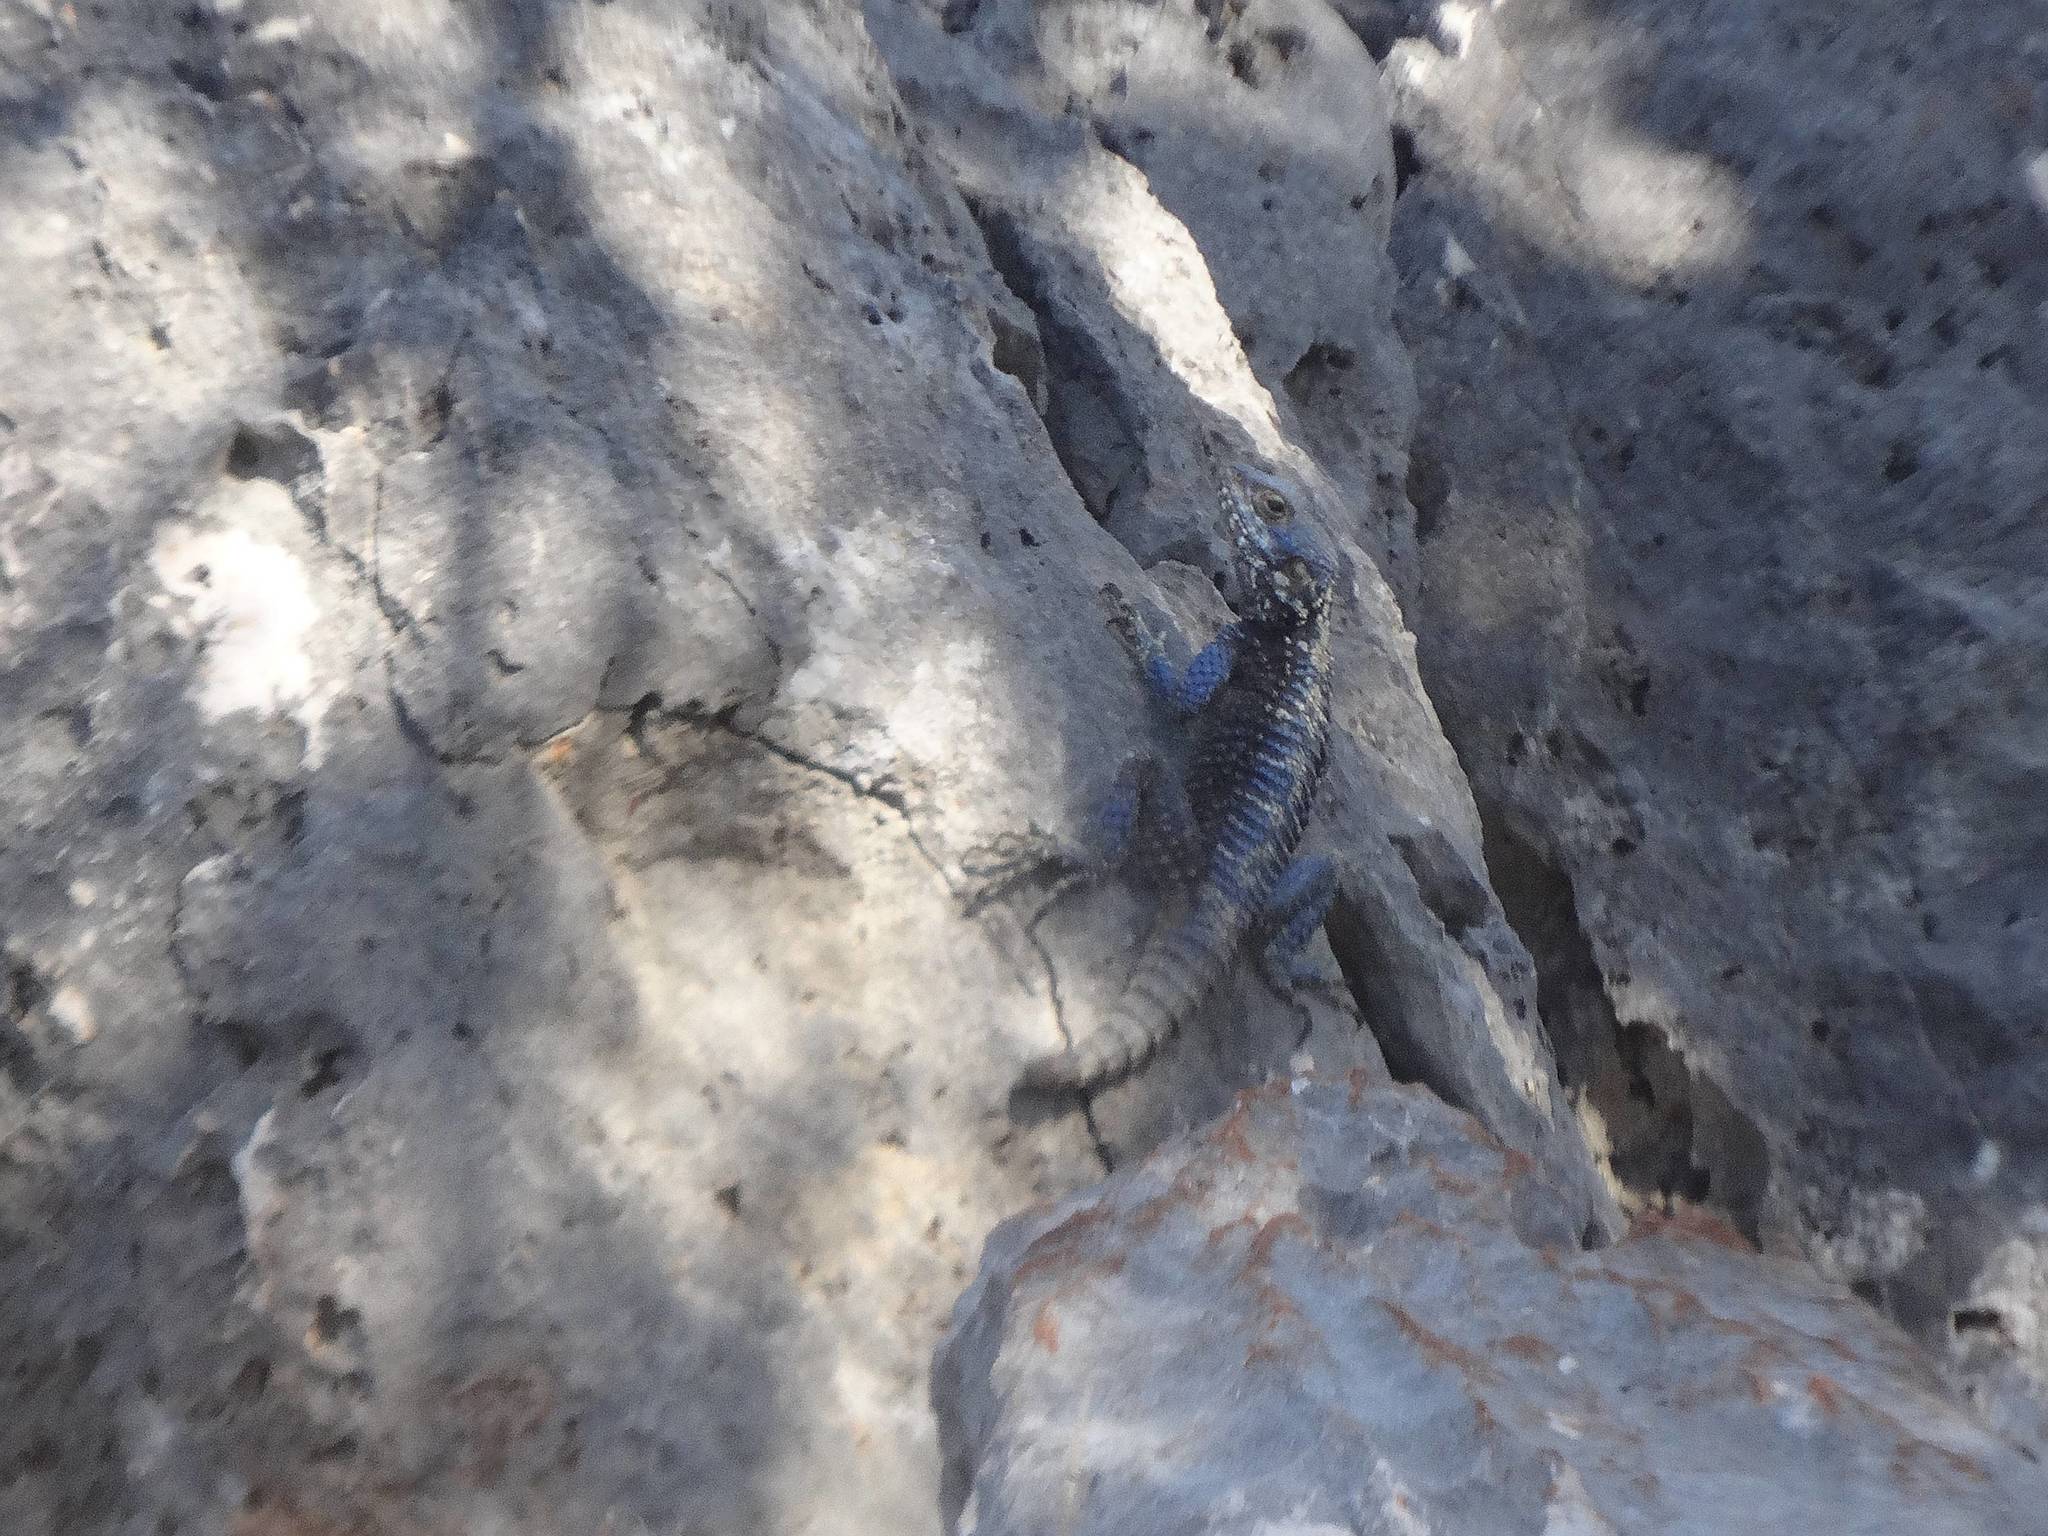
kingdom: Animalia
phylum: Chordata
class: Squamata
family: Agamidae
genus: Stellagama
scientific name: Stellagama stellio
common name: Starred agama
